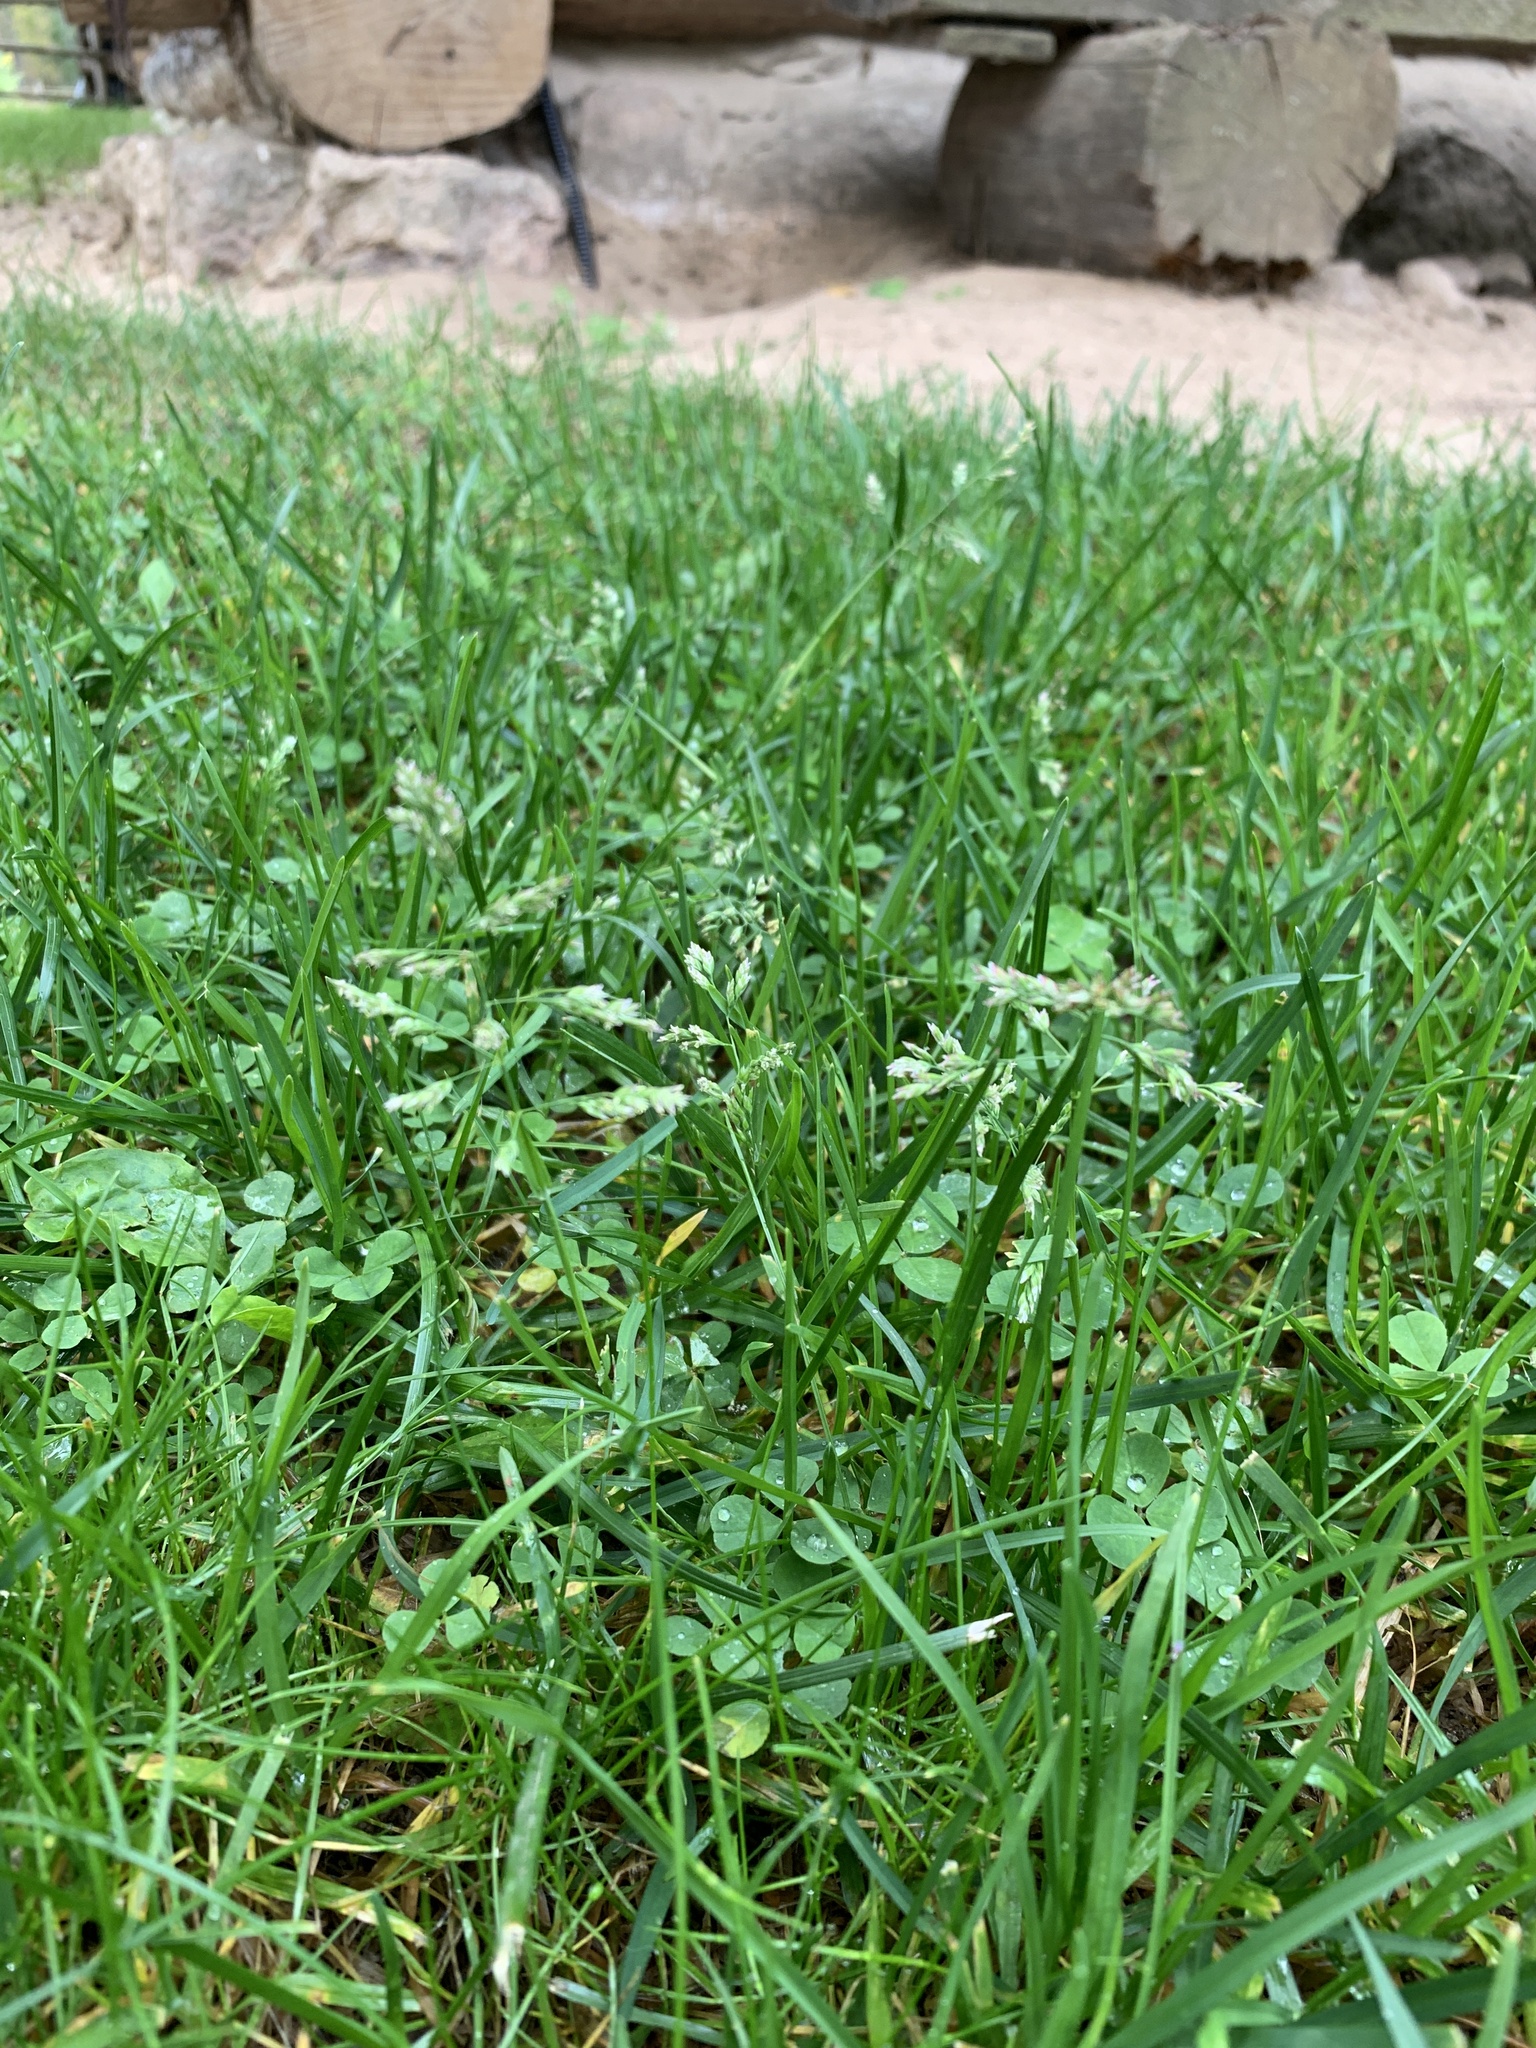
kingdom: Plantae
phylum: Tracheophyta
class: Liliopsida
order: Poales
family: Poaceae
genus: Poa
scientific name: Poa annua
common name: Annual bluegrass
